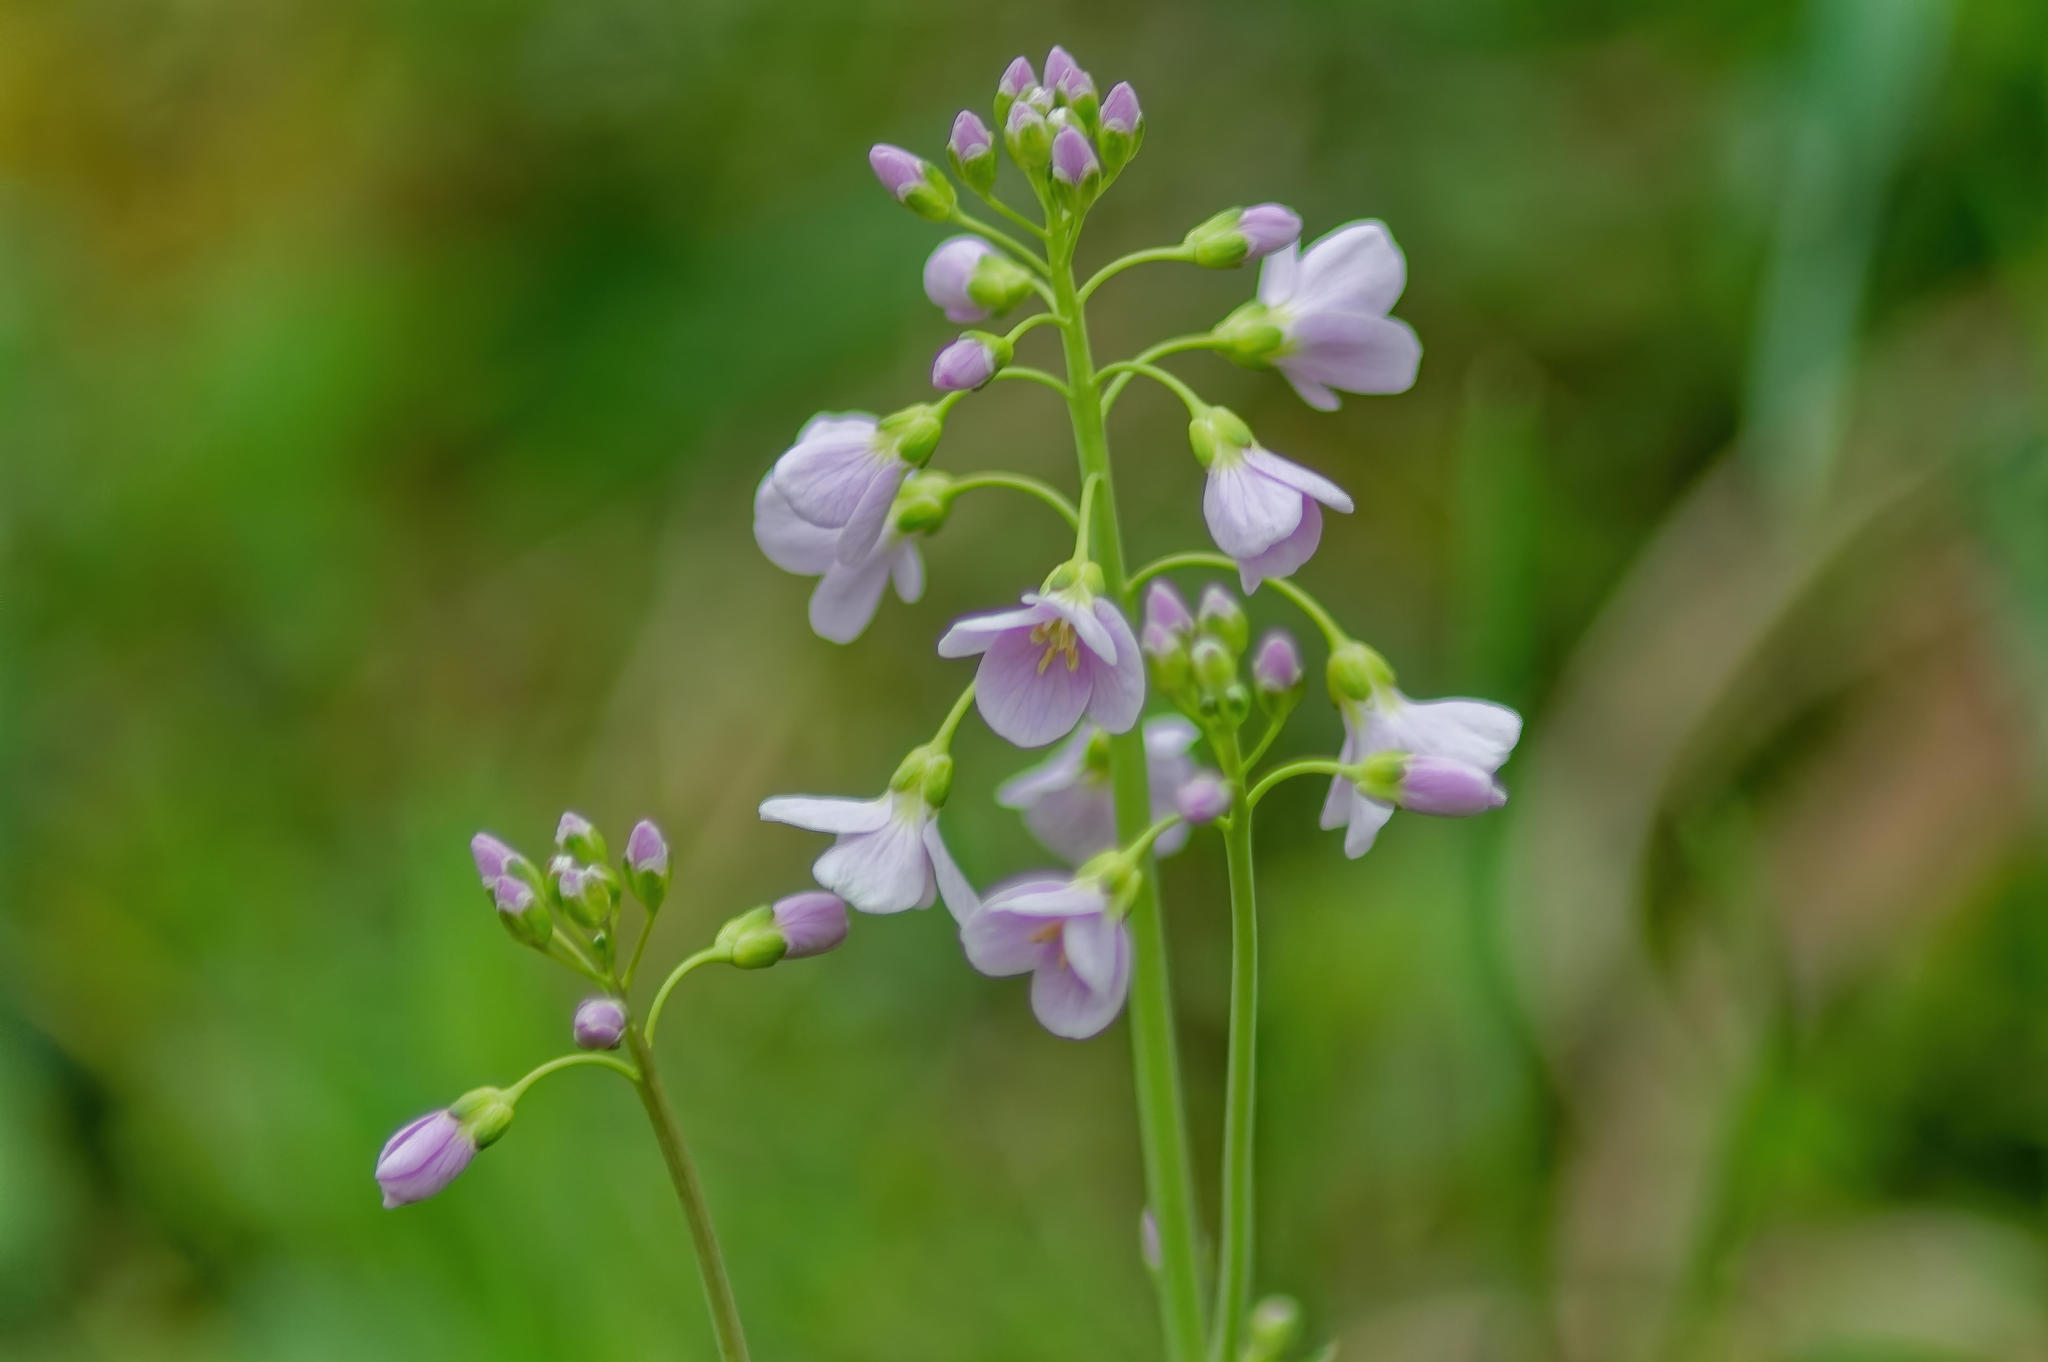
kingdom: Plantae
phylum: Tracheophyta
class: Magnoliopsida
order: Brassicales
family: Brassicaceae
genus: Cardamine
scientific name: Cardamine pratensis
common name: Cuckoo flower
